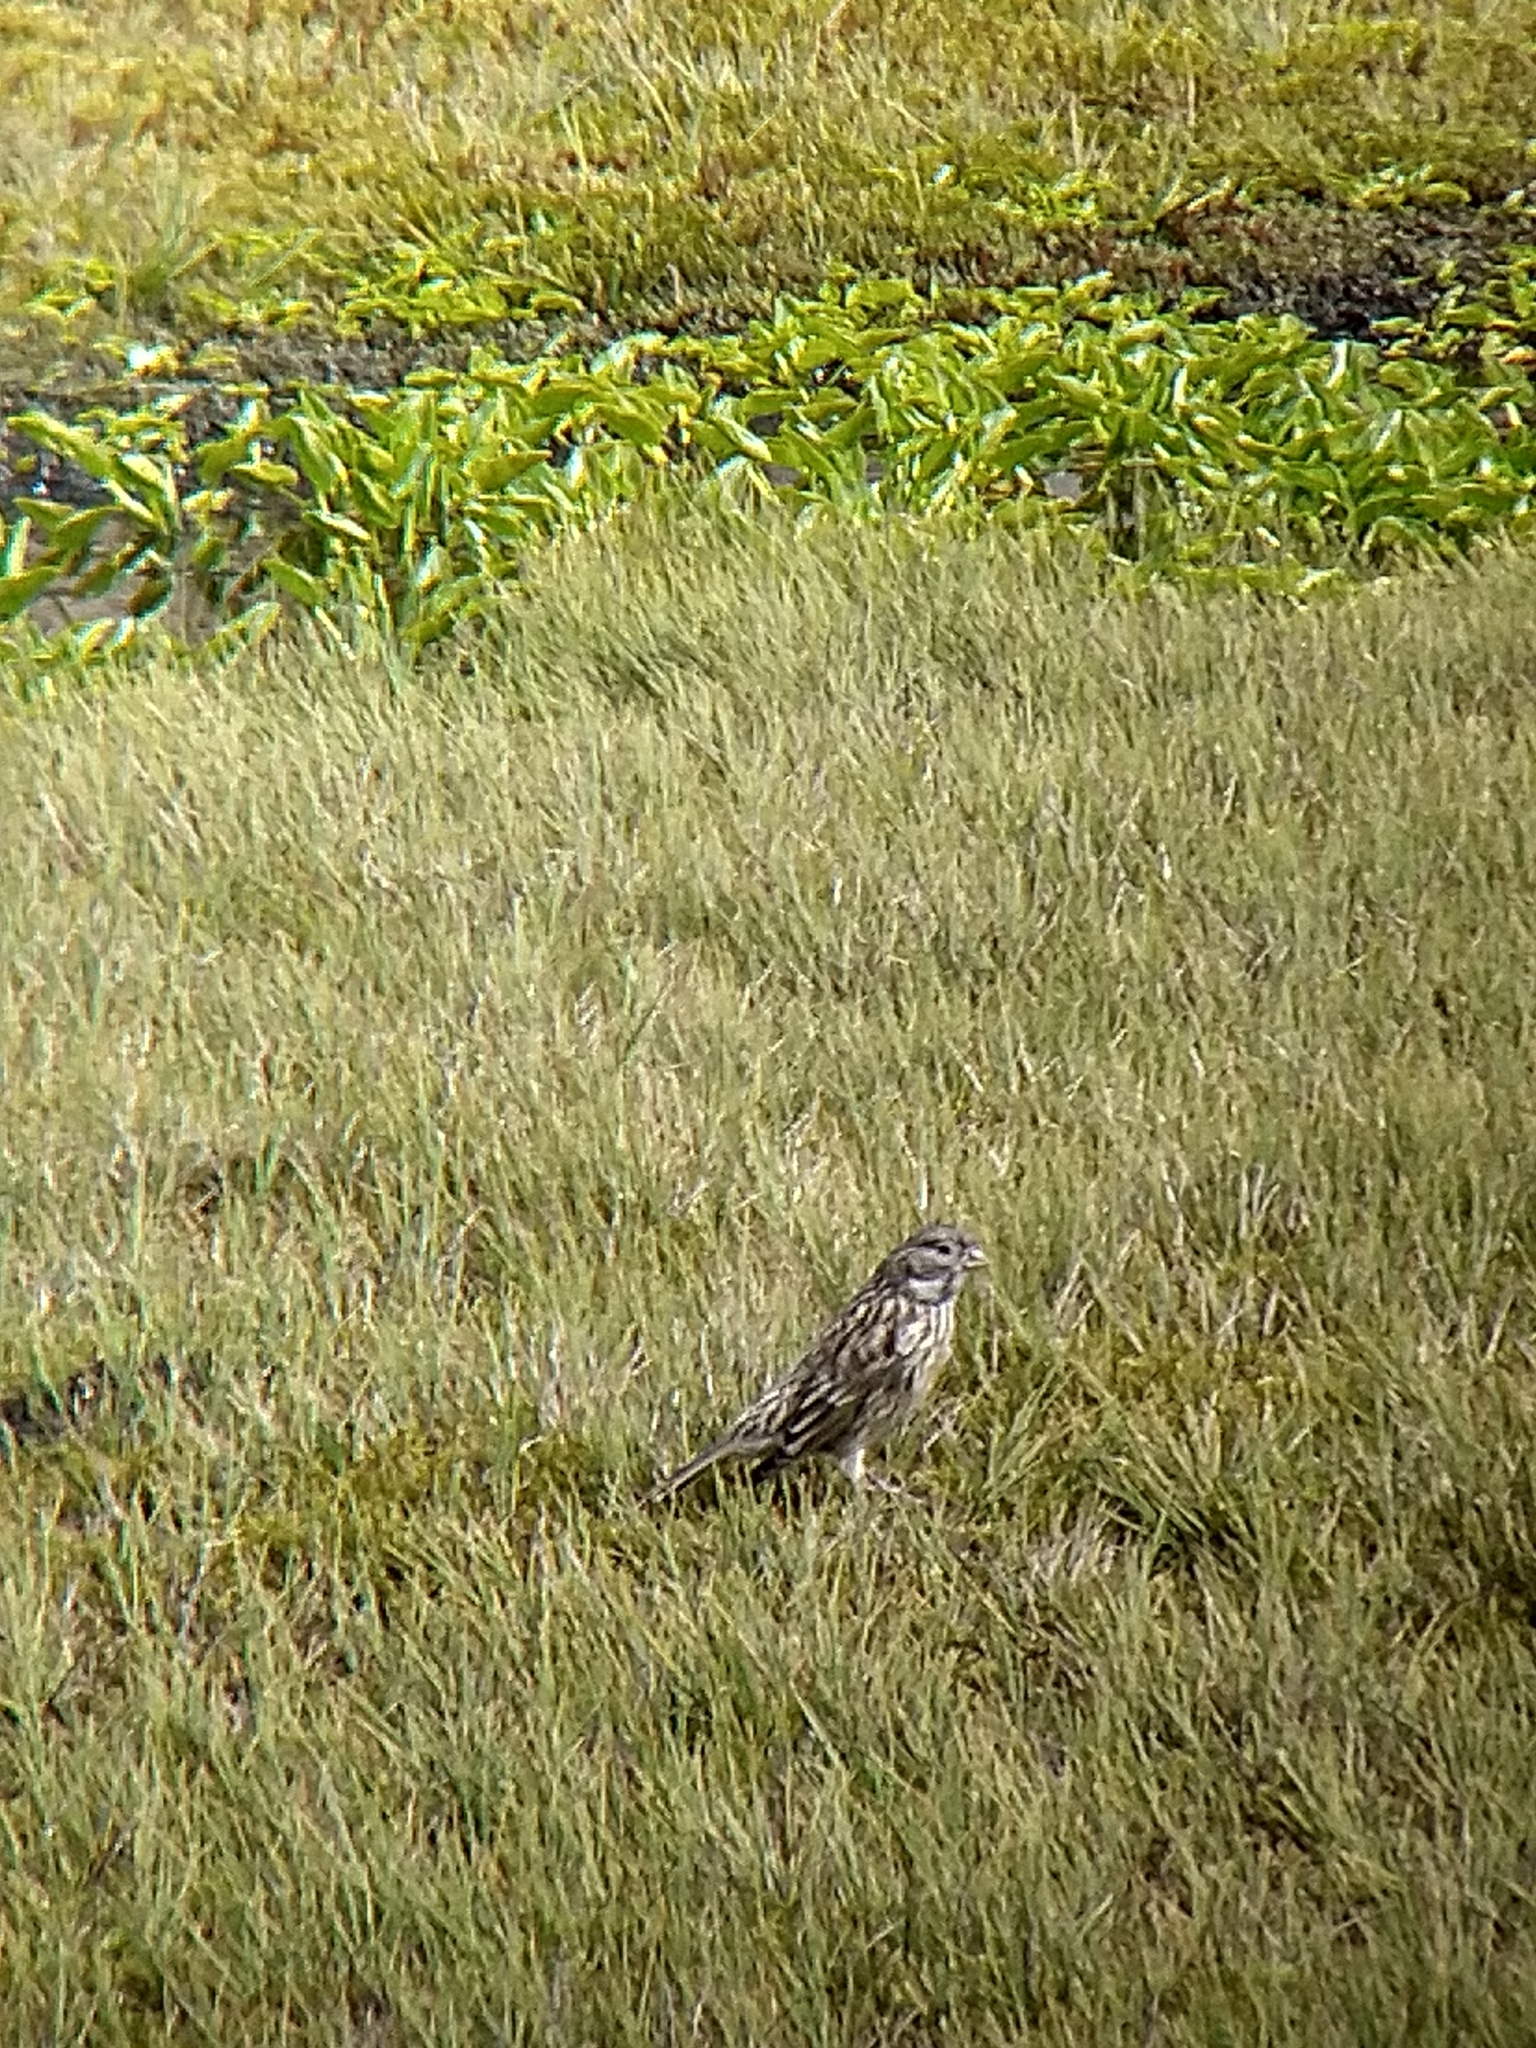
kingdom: Animalia
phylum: Chordata
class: Aves
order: Passeriformes
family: Thraupidae
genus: Melanodera
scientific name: Melanodera xanthogramma
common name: Yellow-bridled finch
